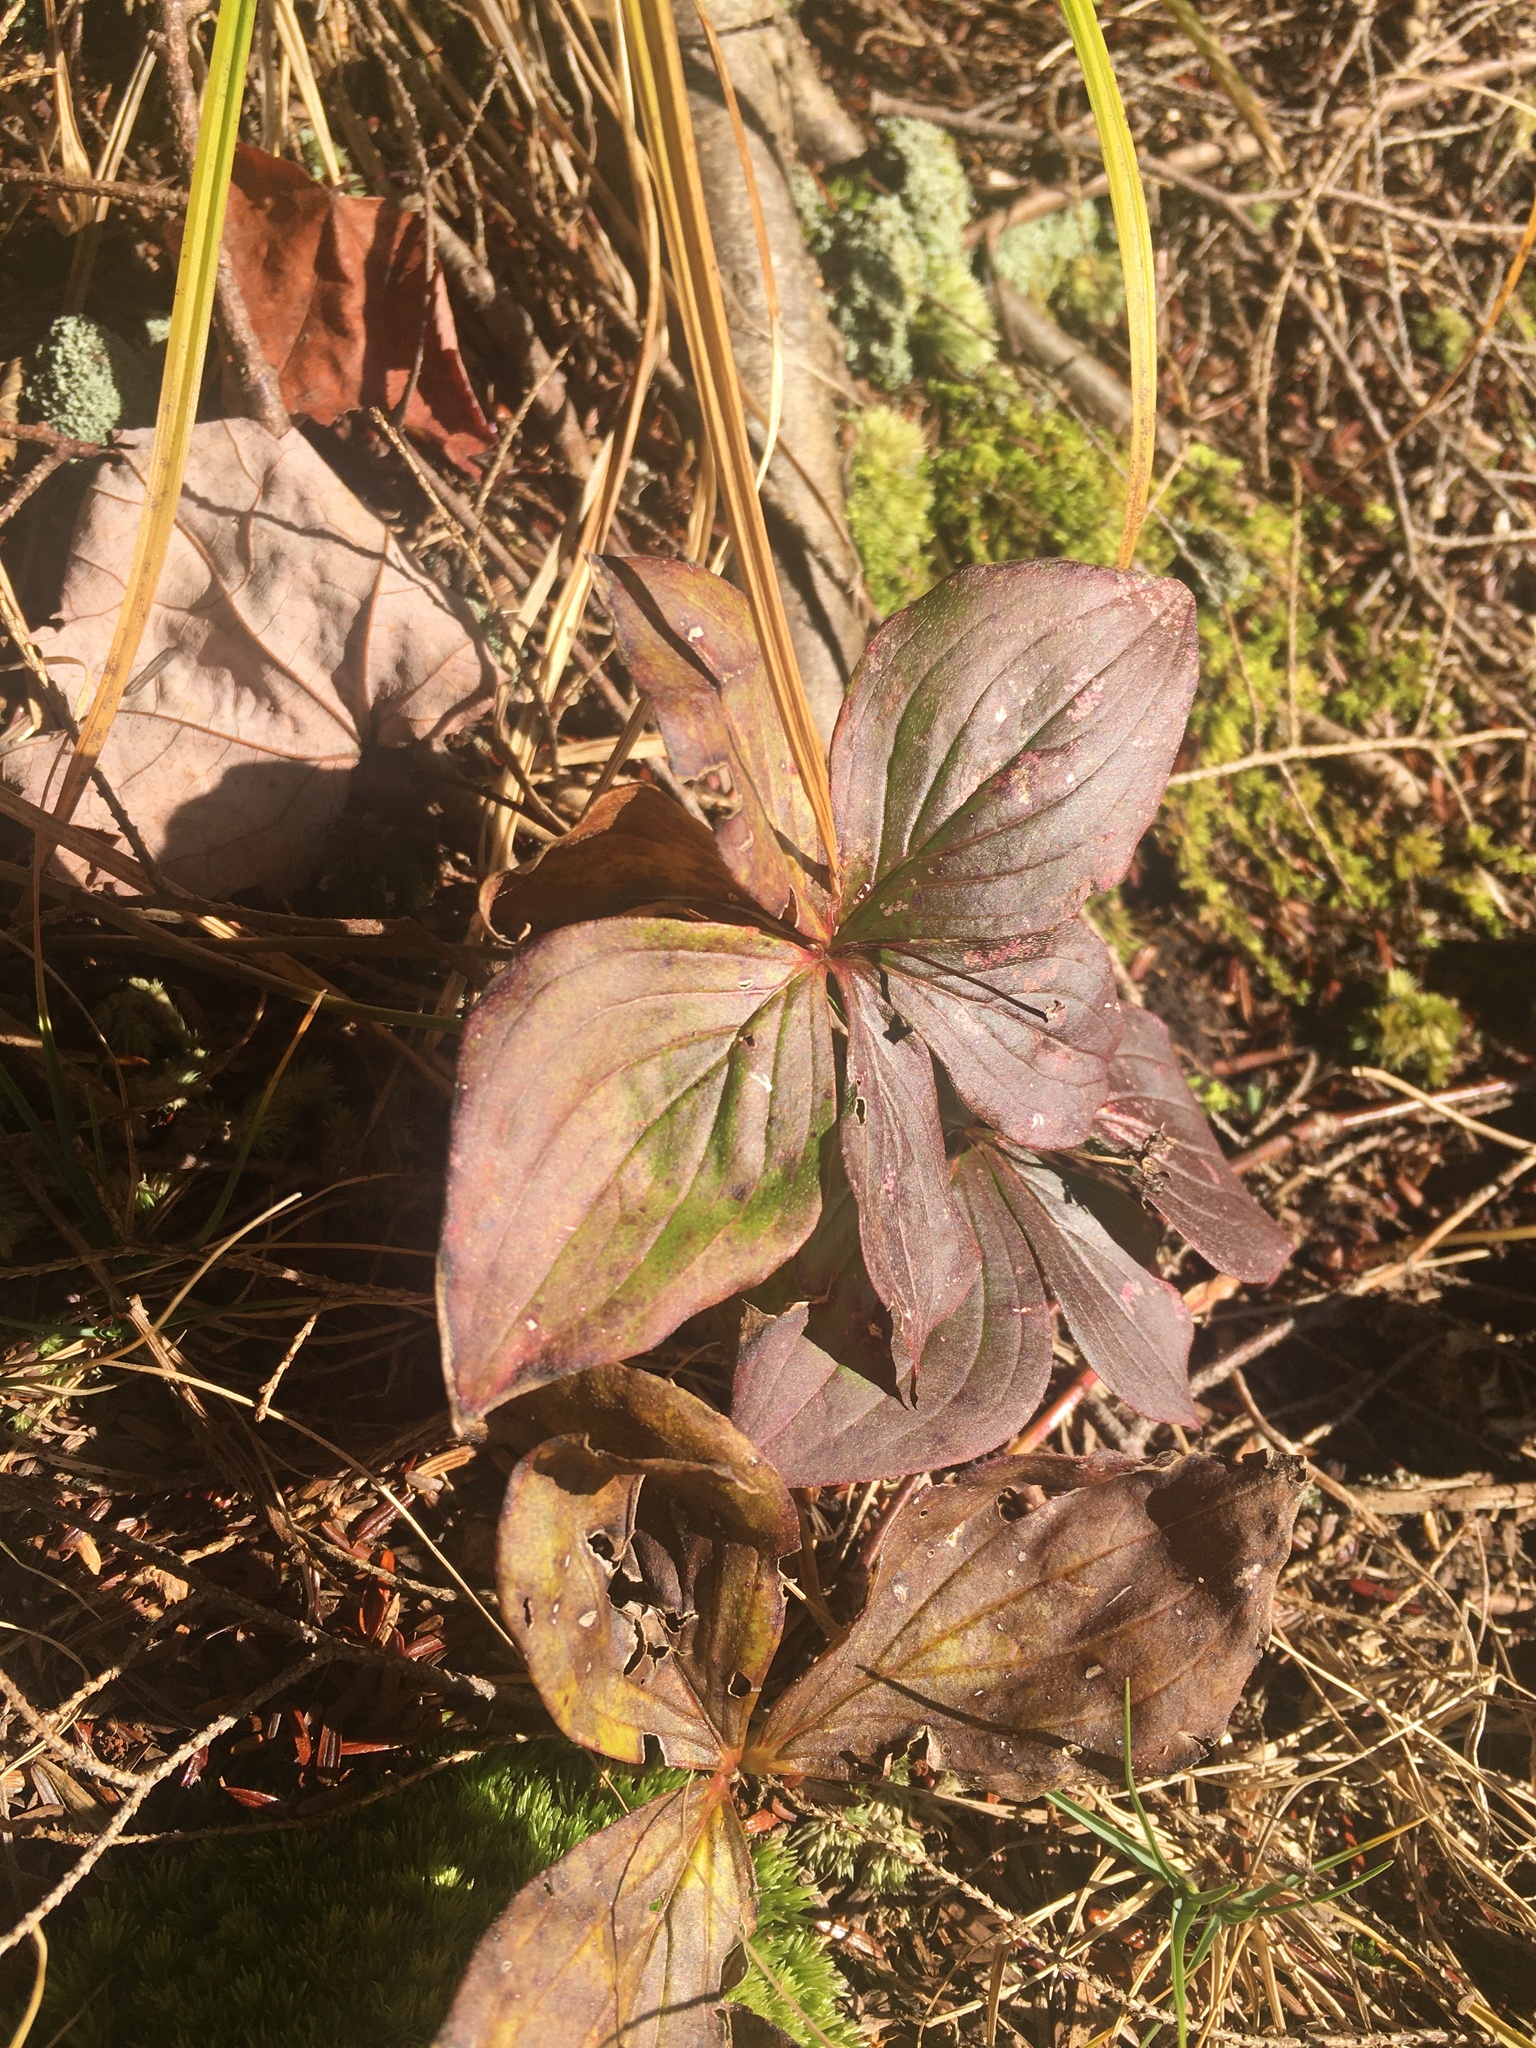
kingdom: Plantae
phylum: Tracheophyta
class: Magnoliopsida
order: Cornales
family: Cornaceae
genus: Cornus
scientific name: Cornus canadensis
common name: Creeping dogwood
